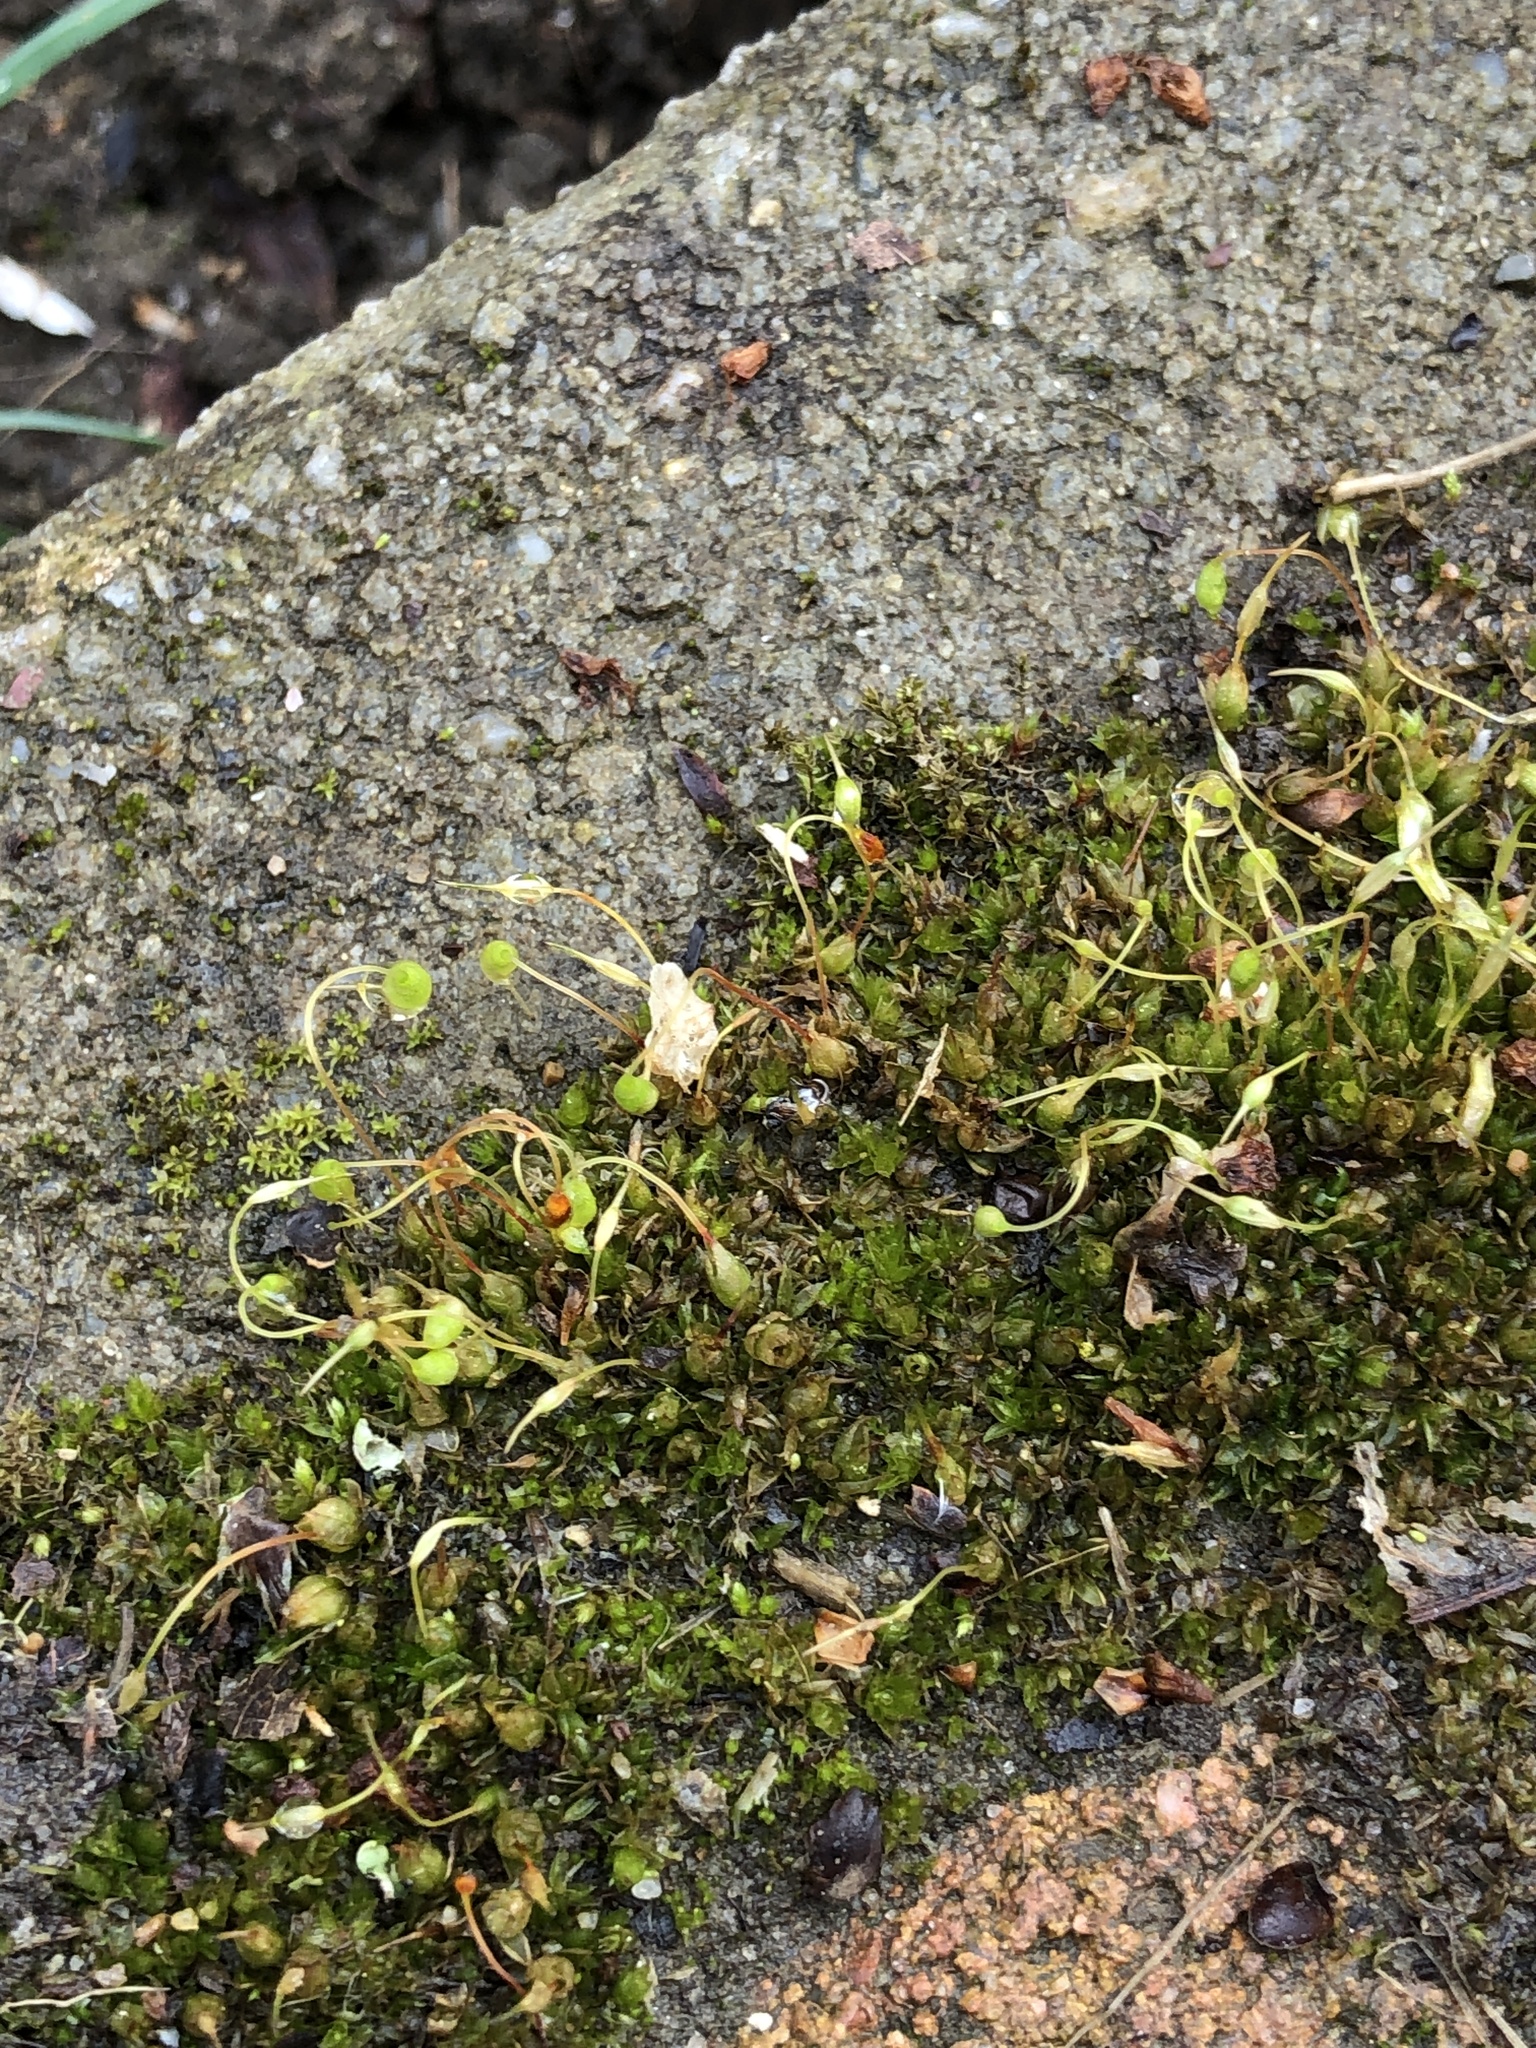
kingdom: Plantae
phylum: Bryophyta
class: Bryopsida
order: Funariales
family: Funariaceae
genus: Funaria
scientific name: Funaria hygrometrica
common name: Common cord moss
